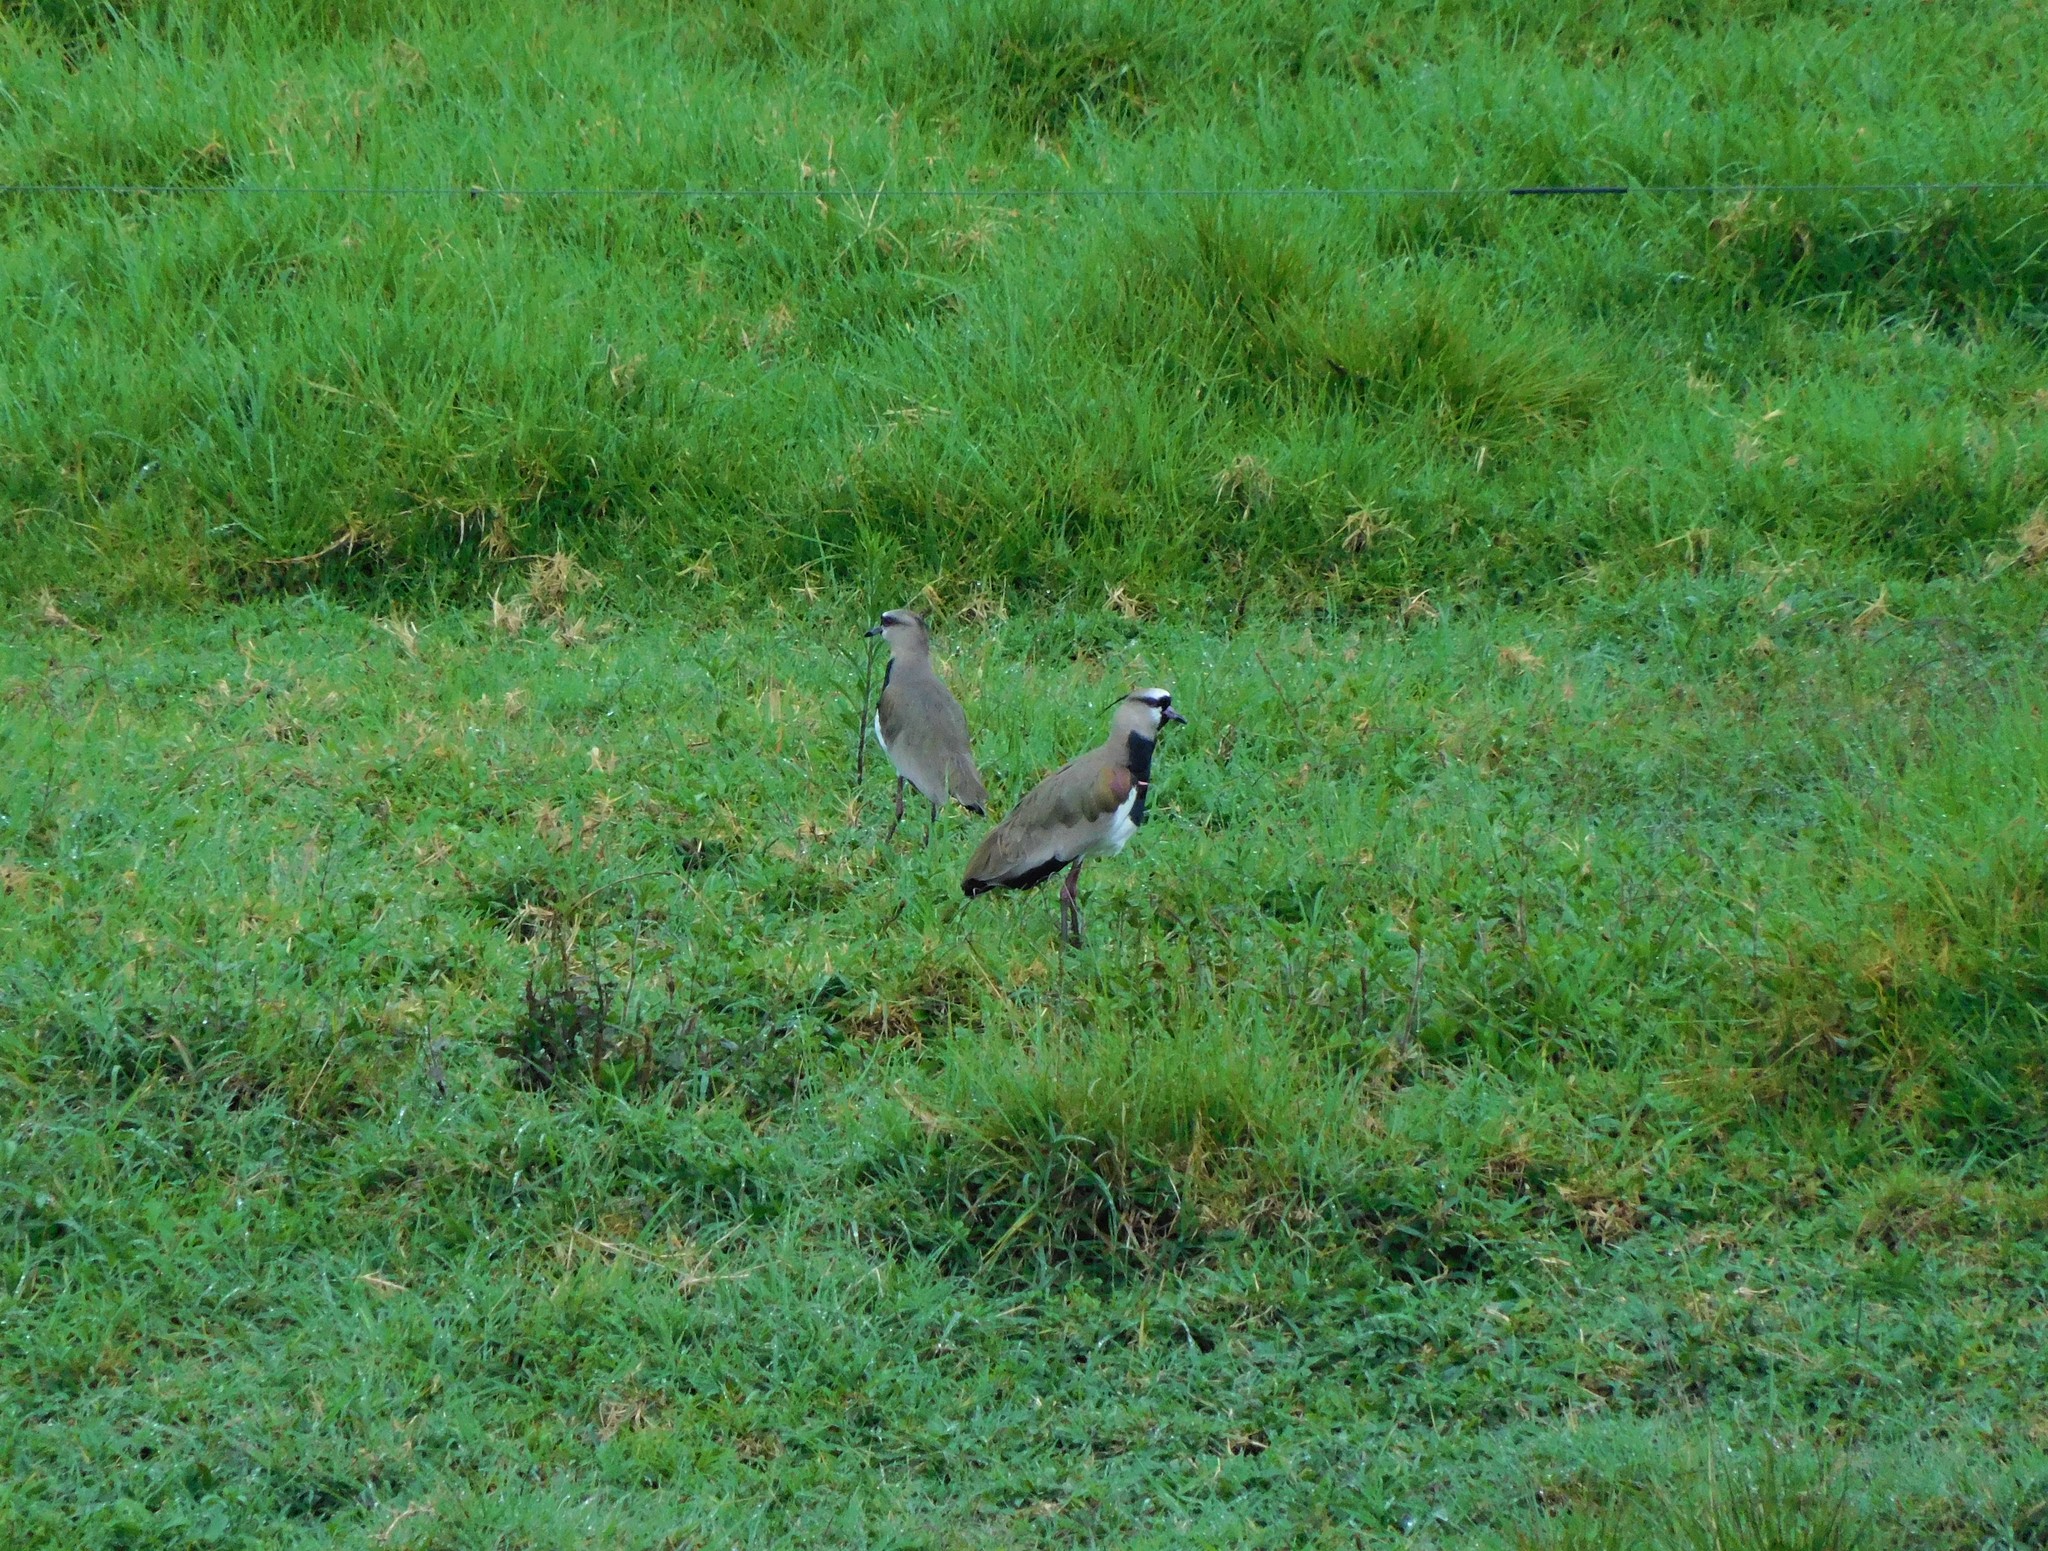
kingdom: Animalia
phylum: Chordata
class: Aves
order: Charadriiformes
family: Charadriidae
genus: Vanellus
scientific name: Vanellus chilensis
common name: Southern lapwing
